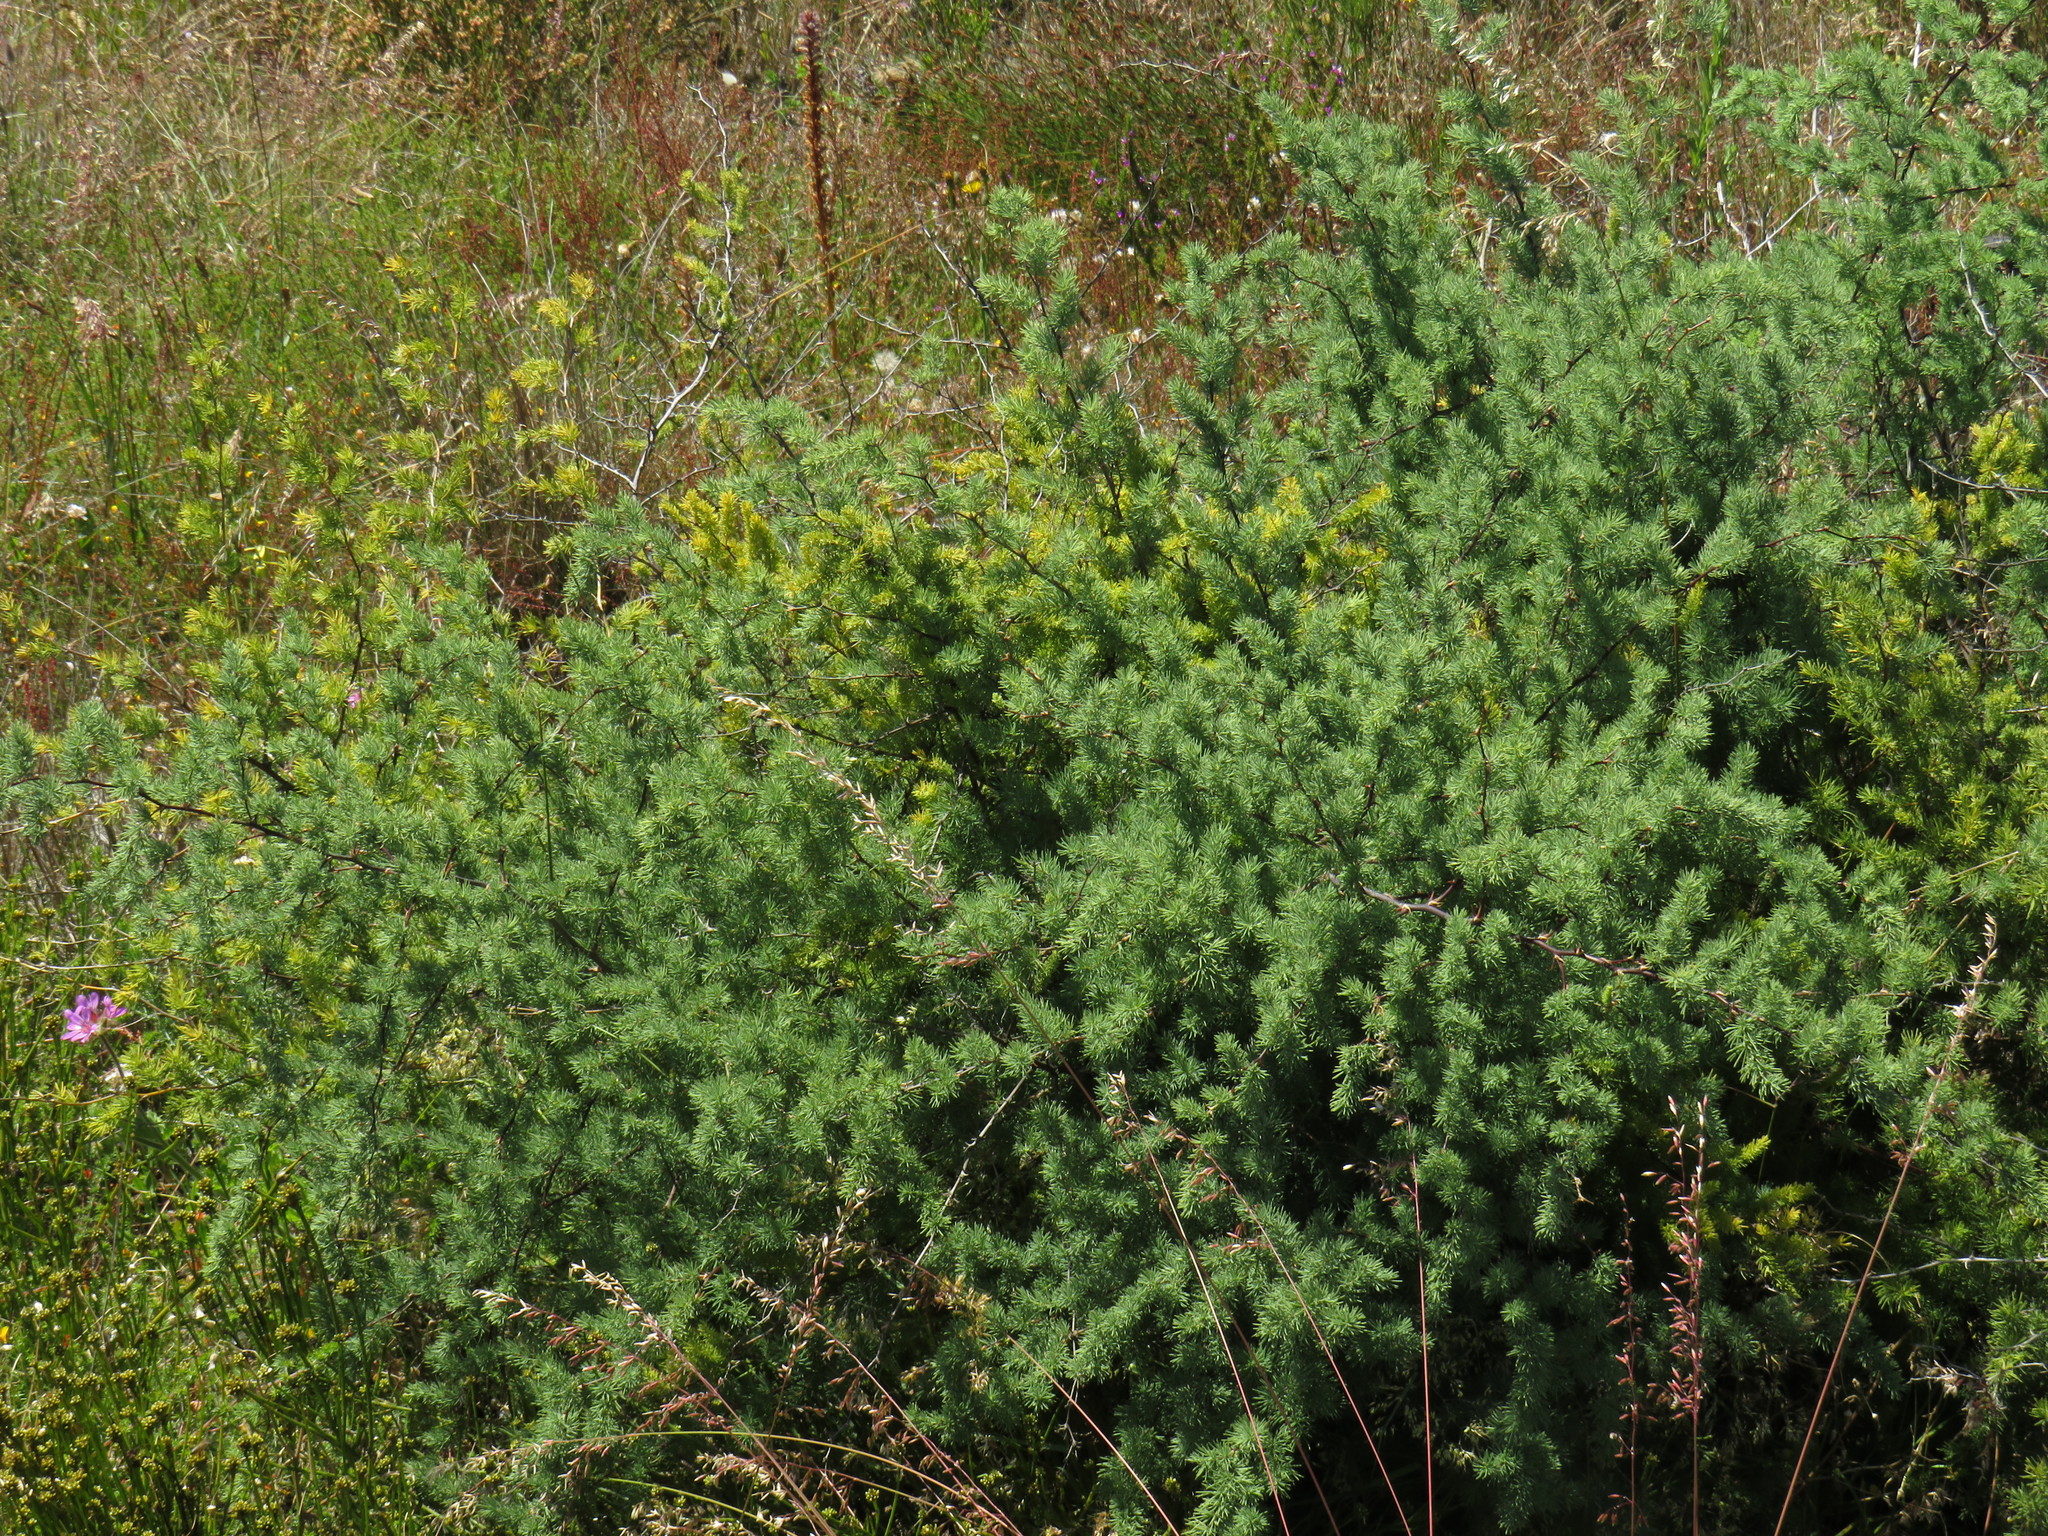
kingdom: Plantae
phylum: Tracheophyta
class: Liliopsida
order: Asparagales
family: Asparagaceae
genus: Asparagus
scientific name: Asparagus rubicundus
